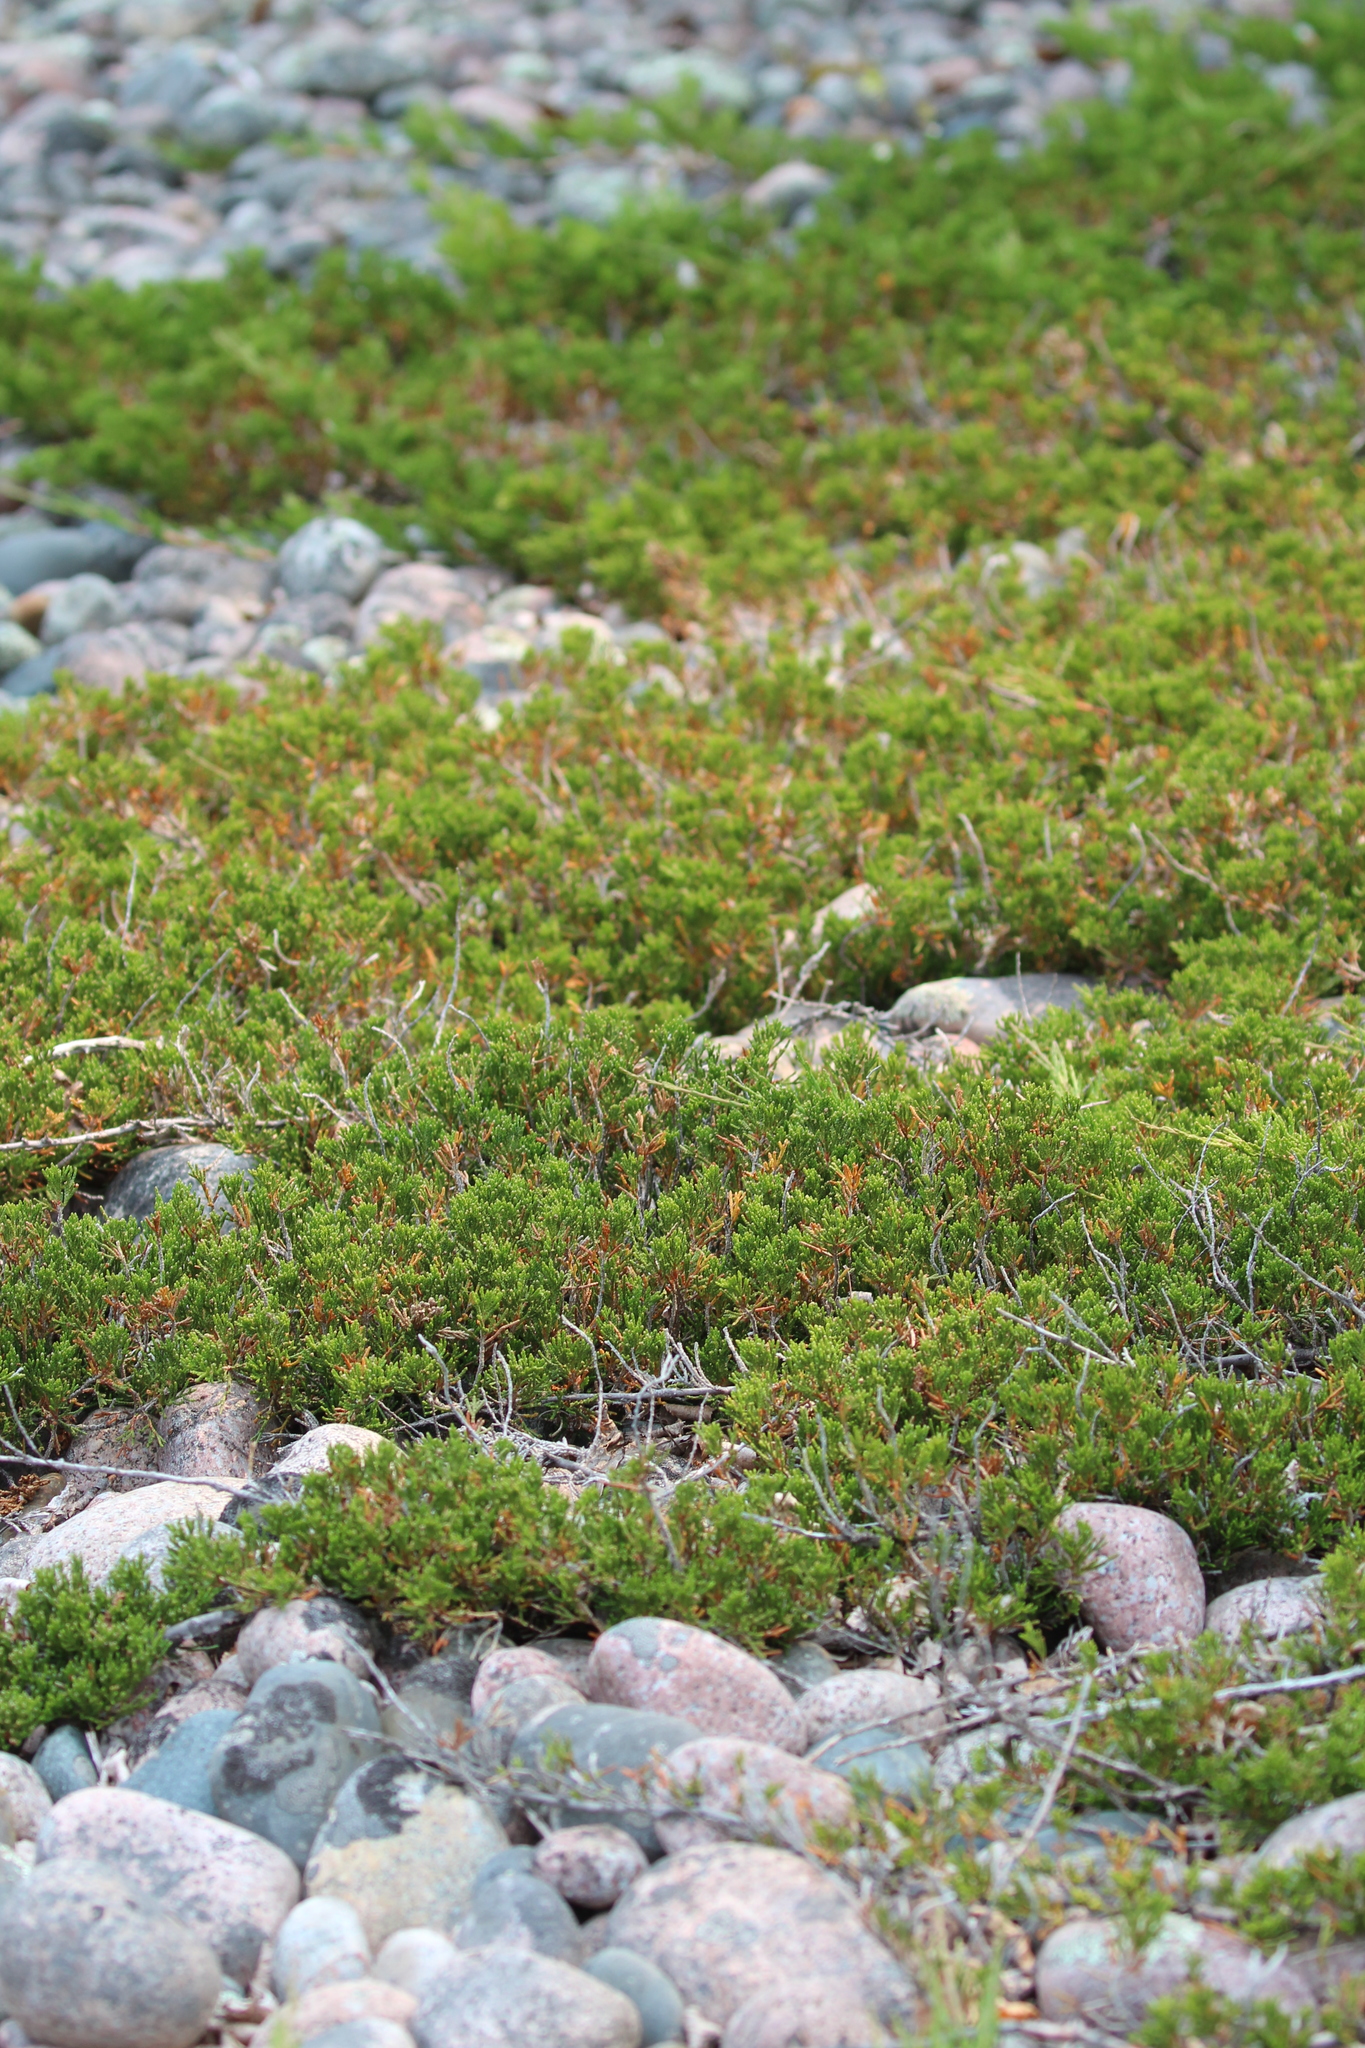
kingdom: Plantae
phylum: Tracheophyta
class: Pinopsida
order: Pinales
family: Cupressaceae
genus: Juniperus
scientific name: Juniperus horizontalis
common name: Creeping juniper
